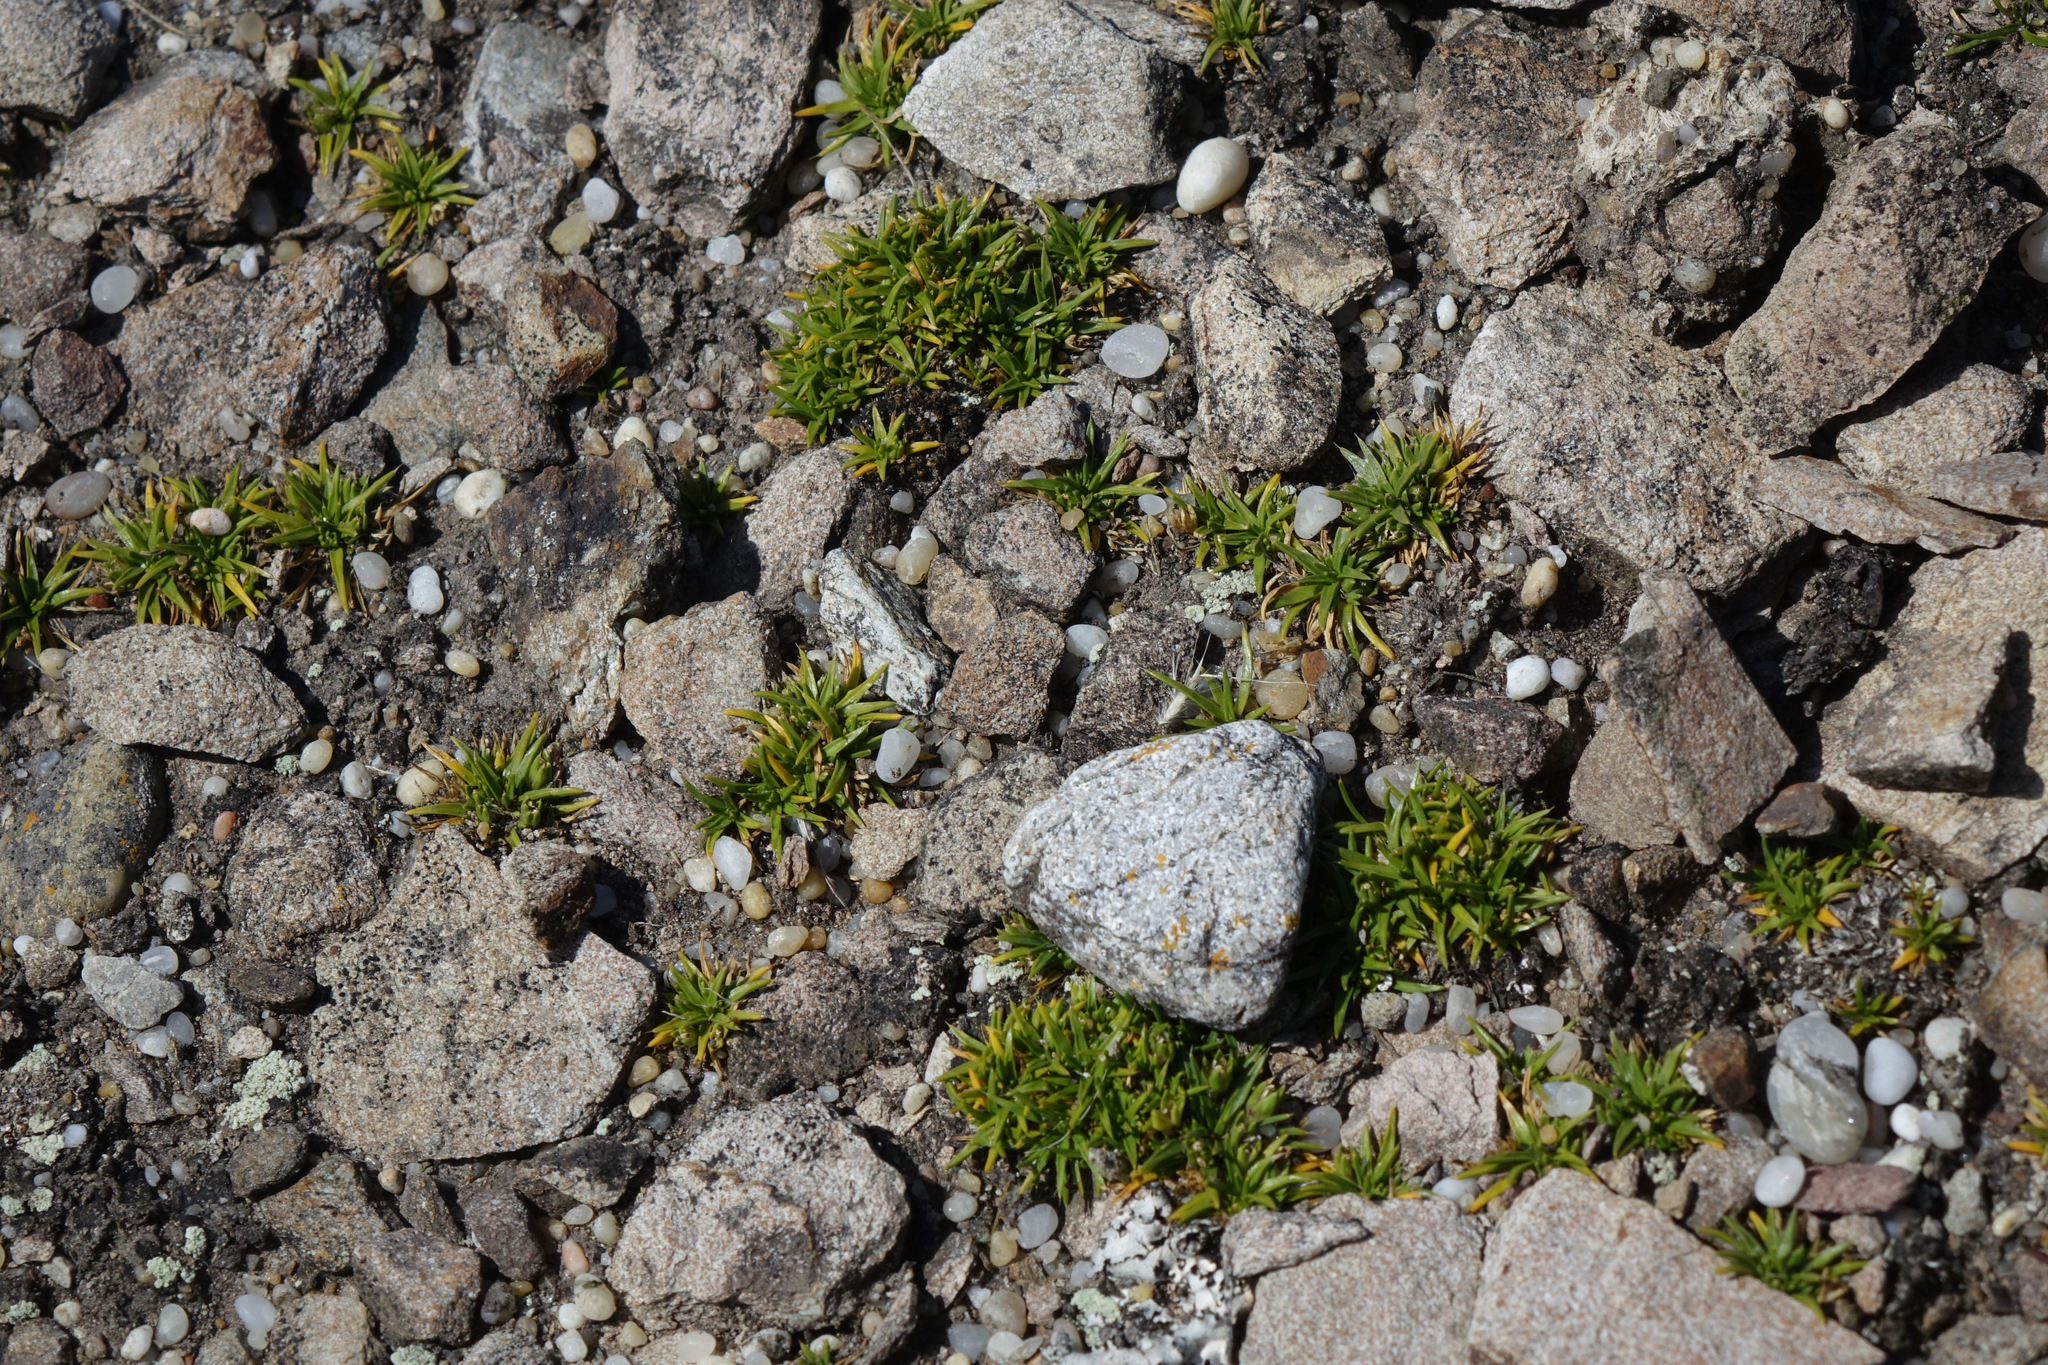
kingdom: Plantae
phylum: Tracheophyta
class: Magnoliopsida
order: Caryophyllales
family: Caryophyllaceae
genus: Colobanthus
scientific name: Colobanthus muelleri
